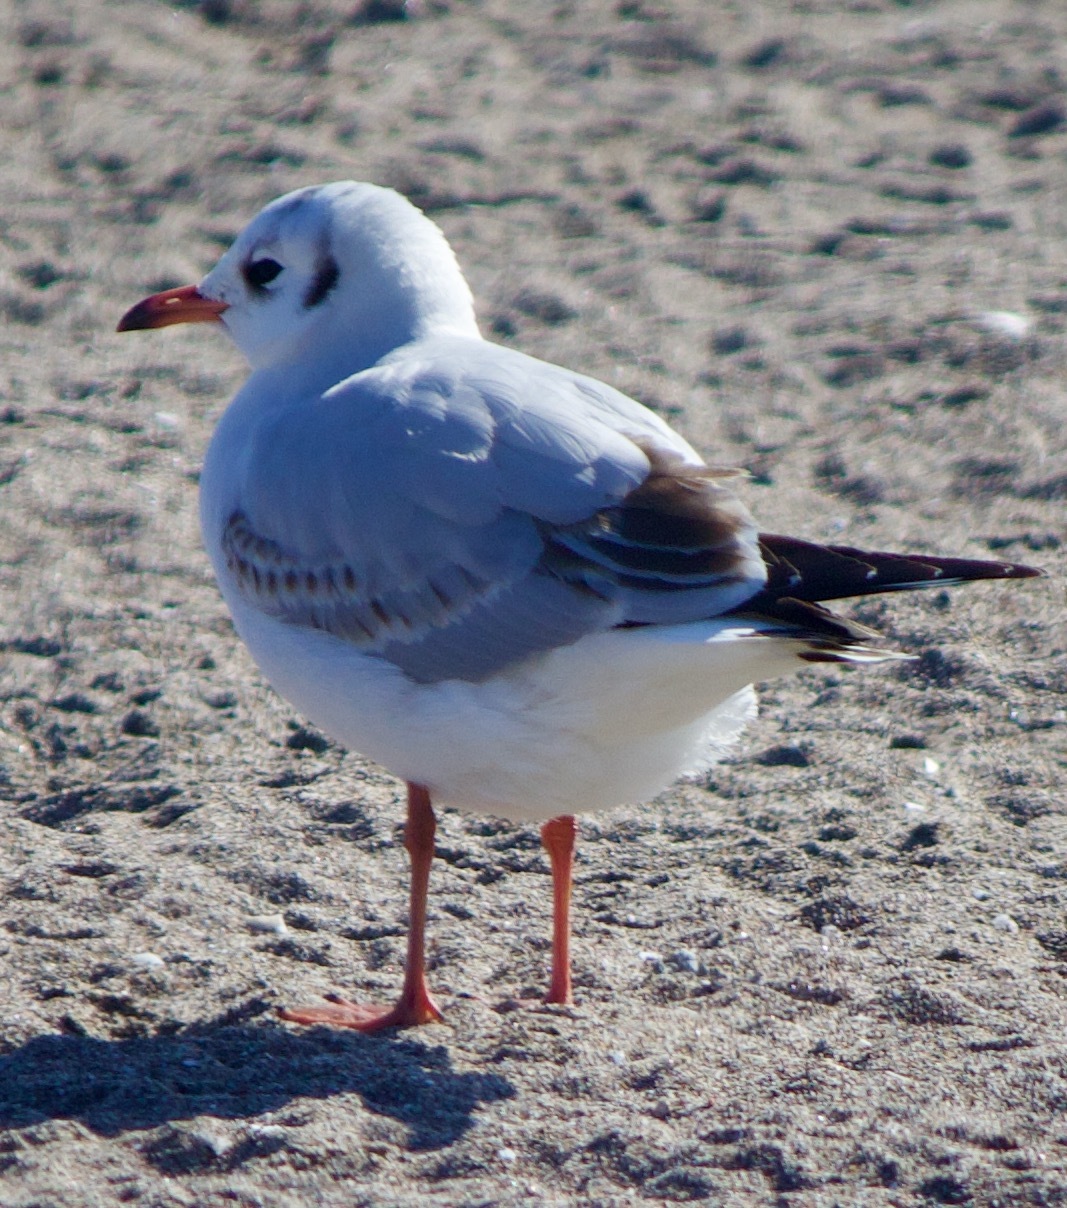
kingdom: Animalia
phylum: Chordata
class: Aves
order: Charadriiformes
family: Laridae
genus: Chroicocephalus
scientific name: Chroicocephalus maculipennis
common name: Brown-hooded gull
